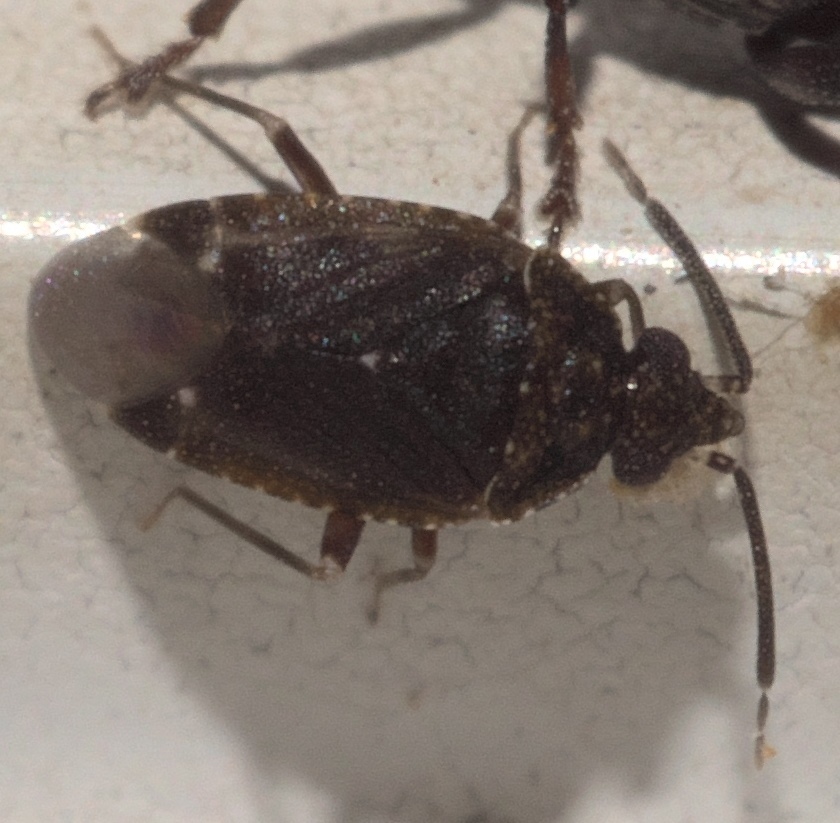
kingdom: Animalia
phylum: Arthropoda
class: Insecta
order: Hemiptera
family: Miridae
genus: Peritropis
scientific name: Peritropis saldaeformis
